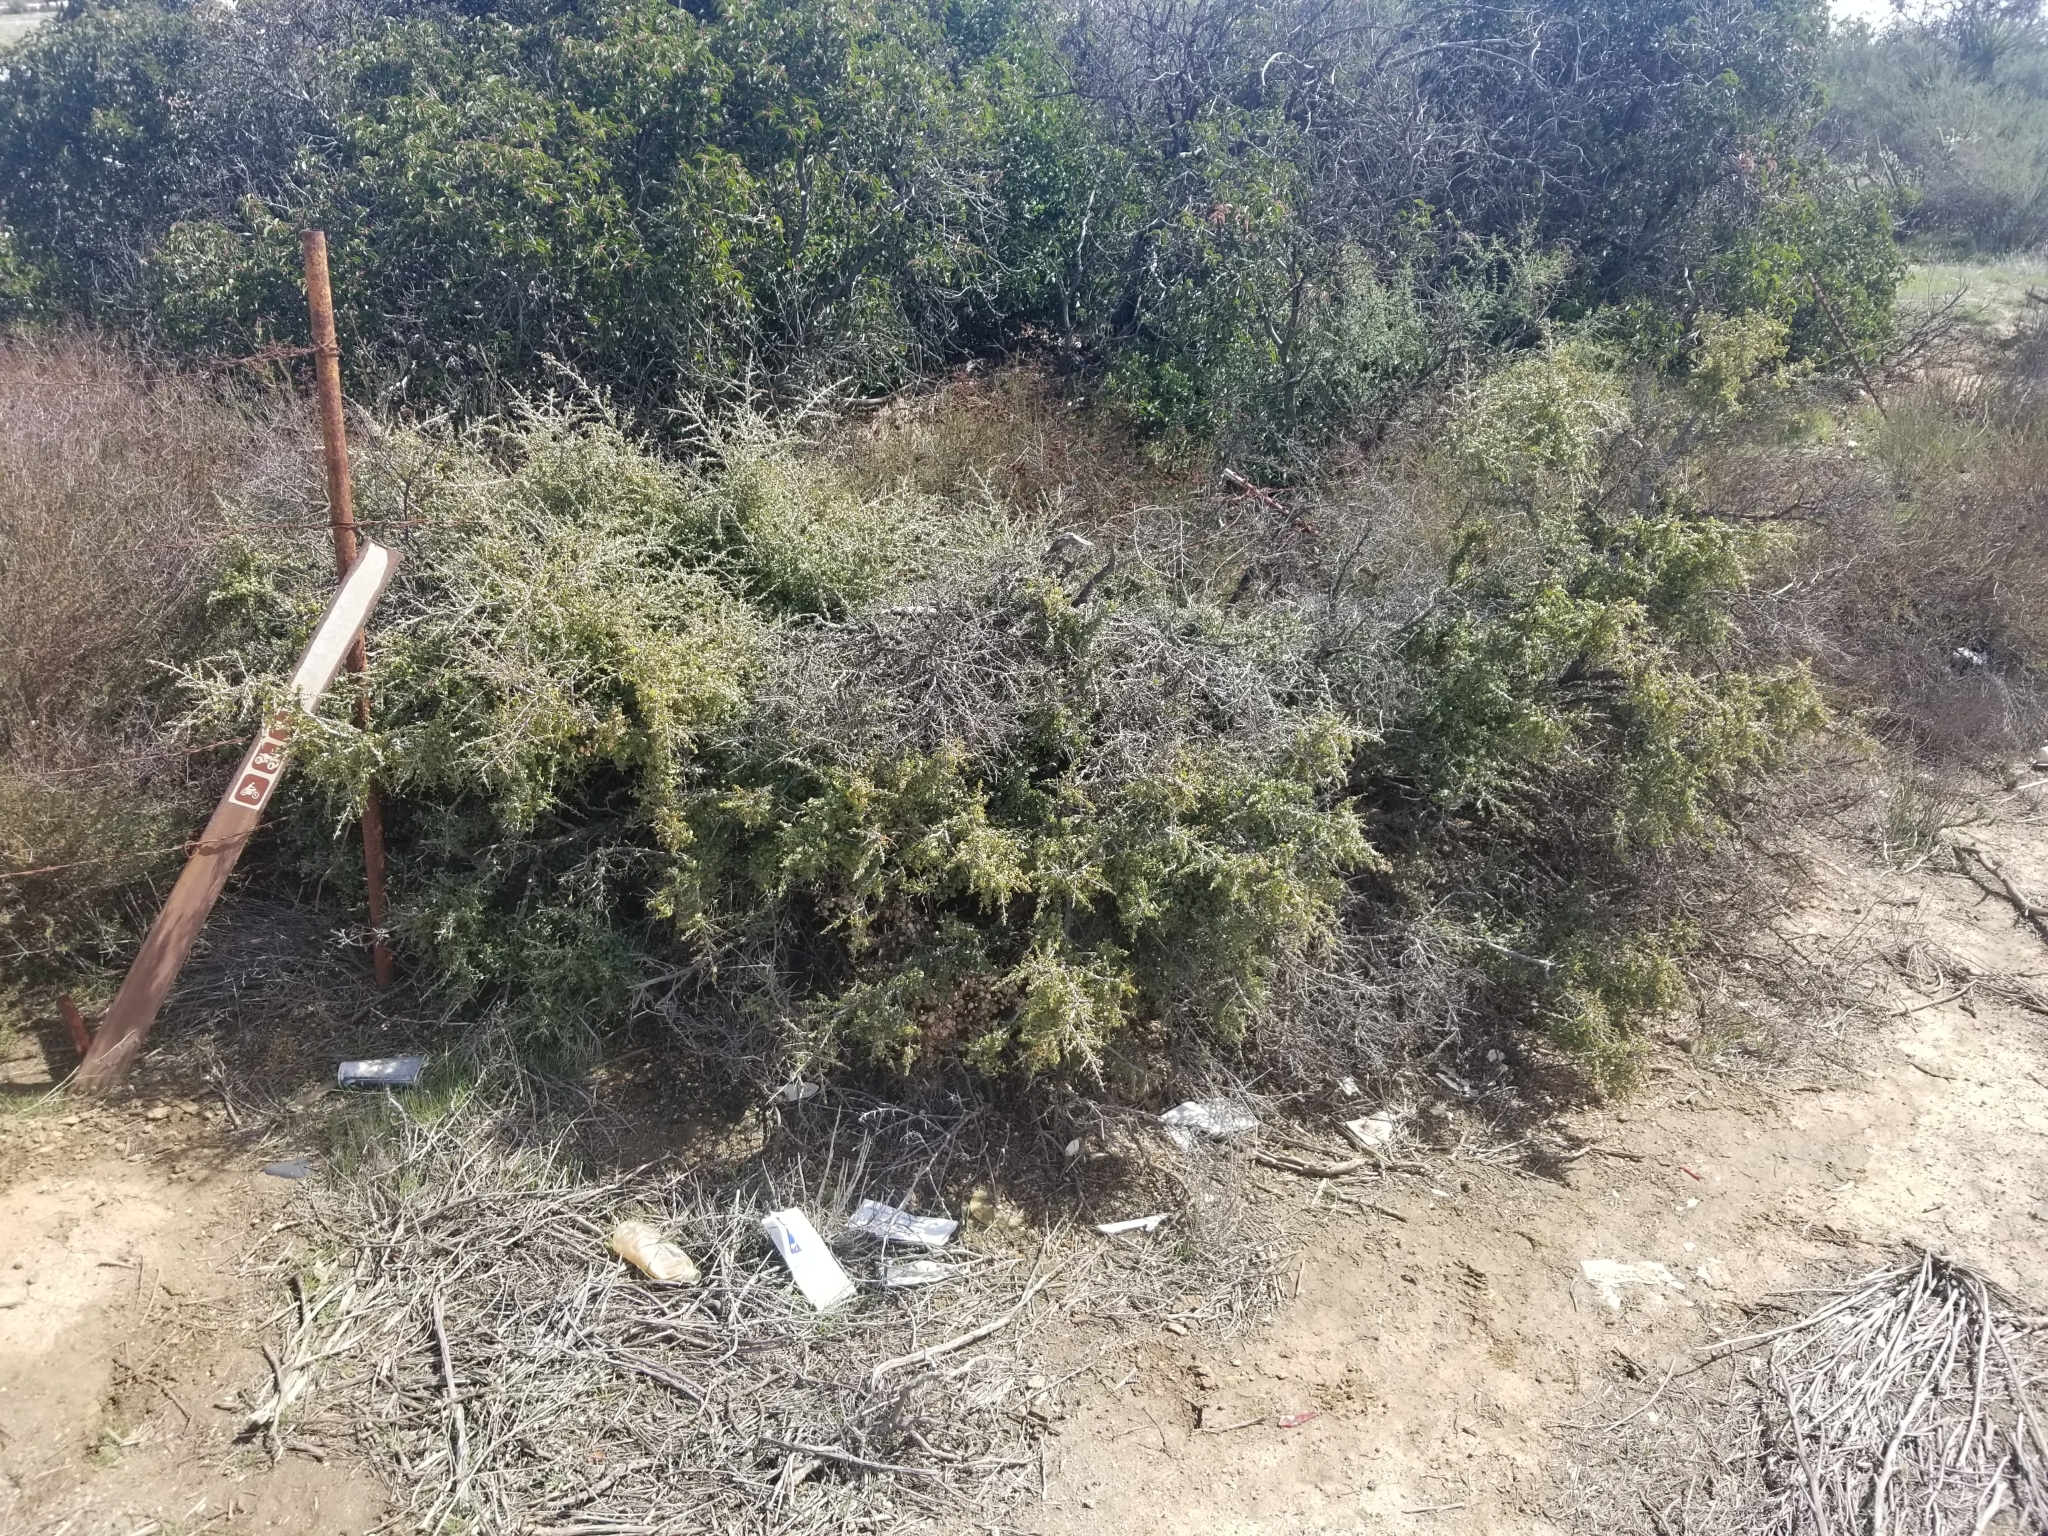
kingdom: Plantae
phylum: Tracheophyta
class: Magnoliopsida
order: Rosales
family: Rhamnaceae
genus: Endotropis
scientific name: Endotropis crocea
